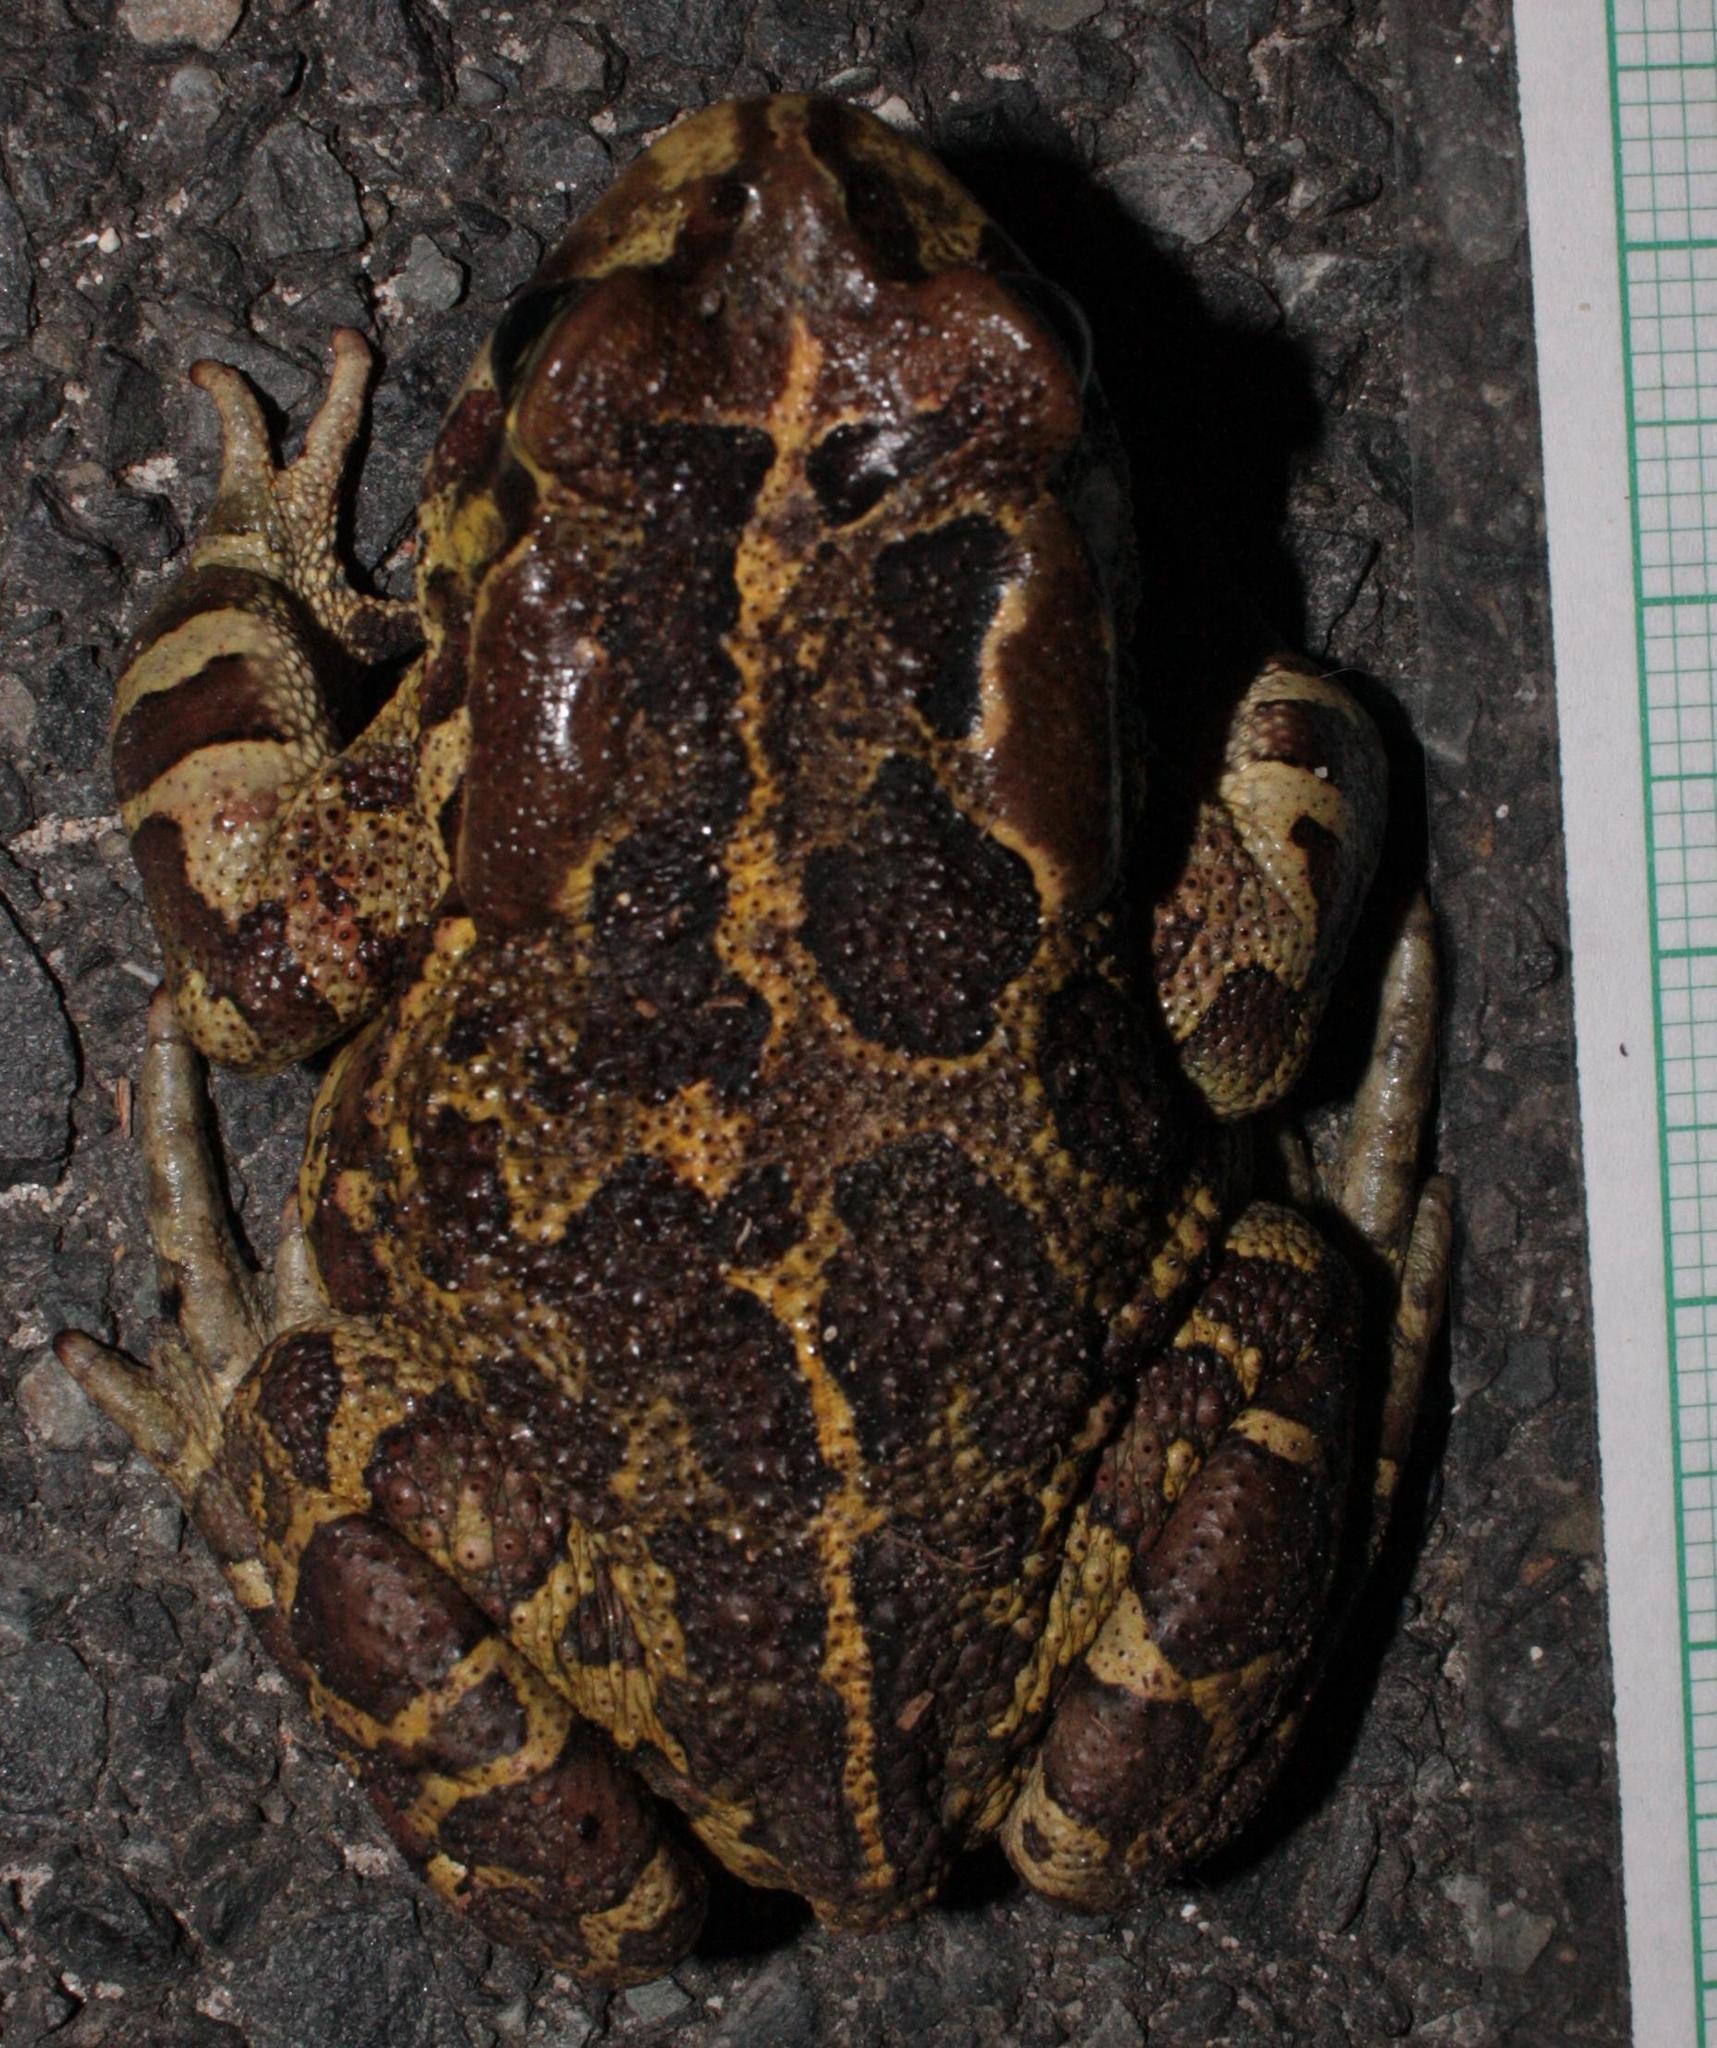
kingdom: Animalia
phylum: Chordata
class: Amphibia
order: Anura
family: Bufonidae
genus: Sclerophrys
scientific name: Sclerophrys pantherina
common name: Panther toad
